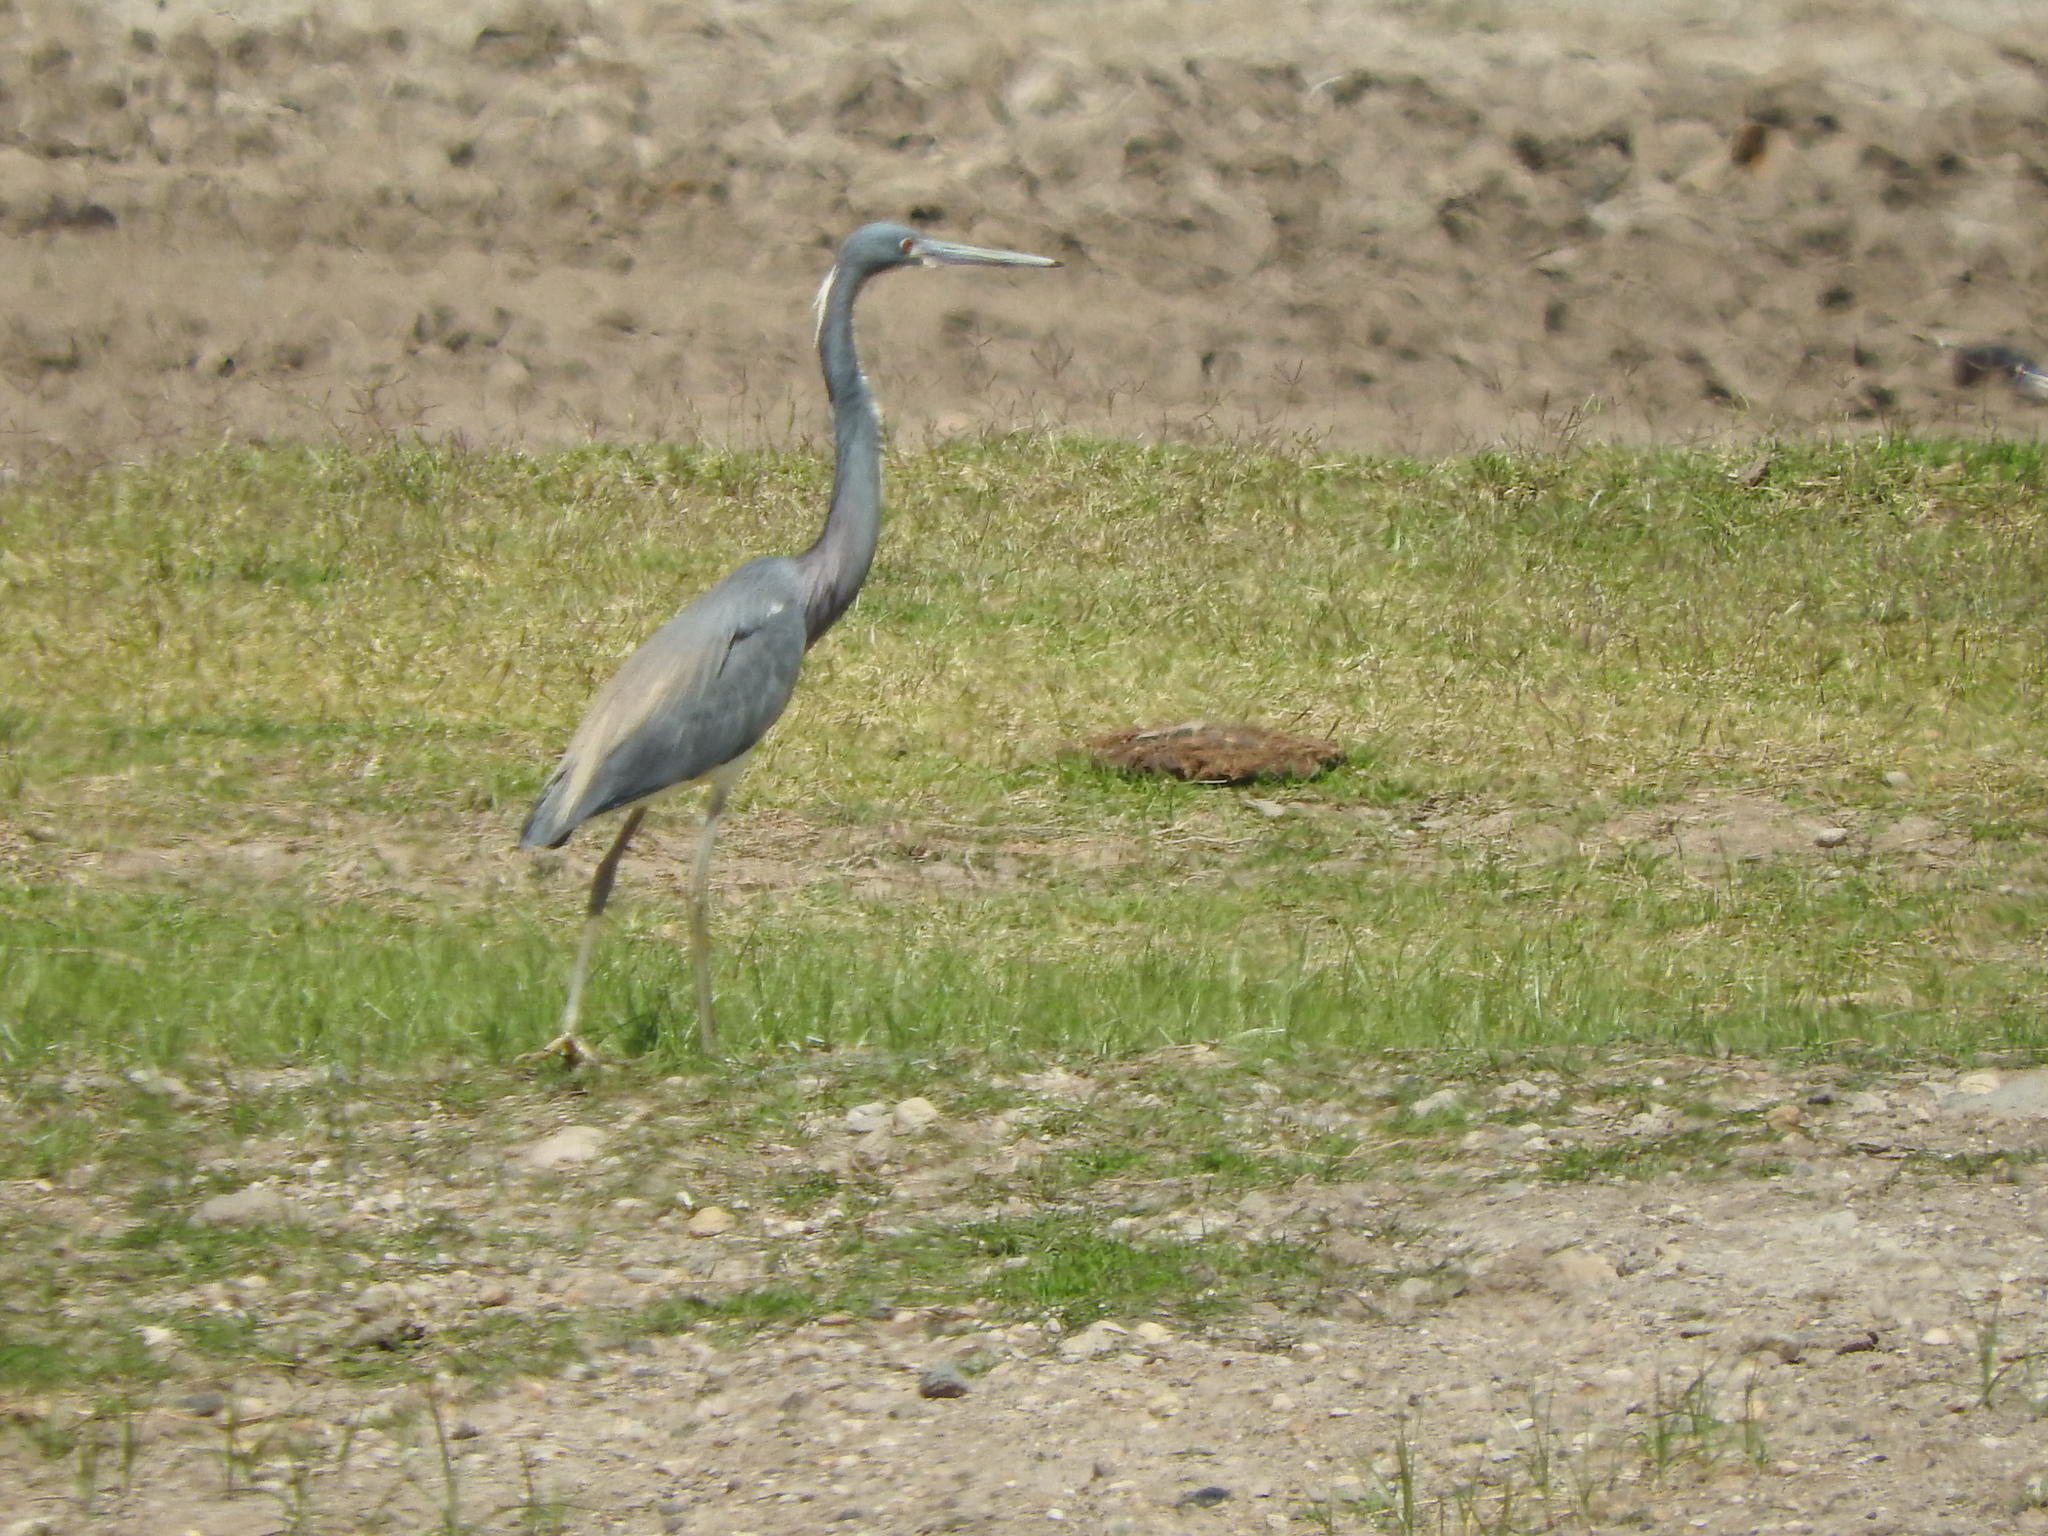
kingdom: Animalia
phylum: Chordata
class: Aves
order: Pelecaniformes
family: Ardeidae
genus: Egretta
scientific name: Egretta tricolor
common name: Tricolored heron
